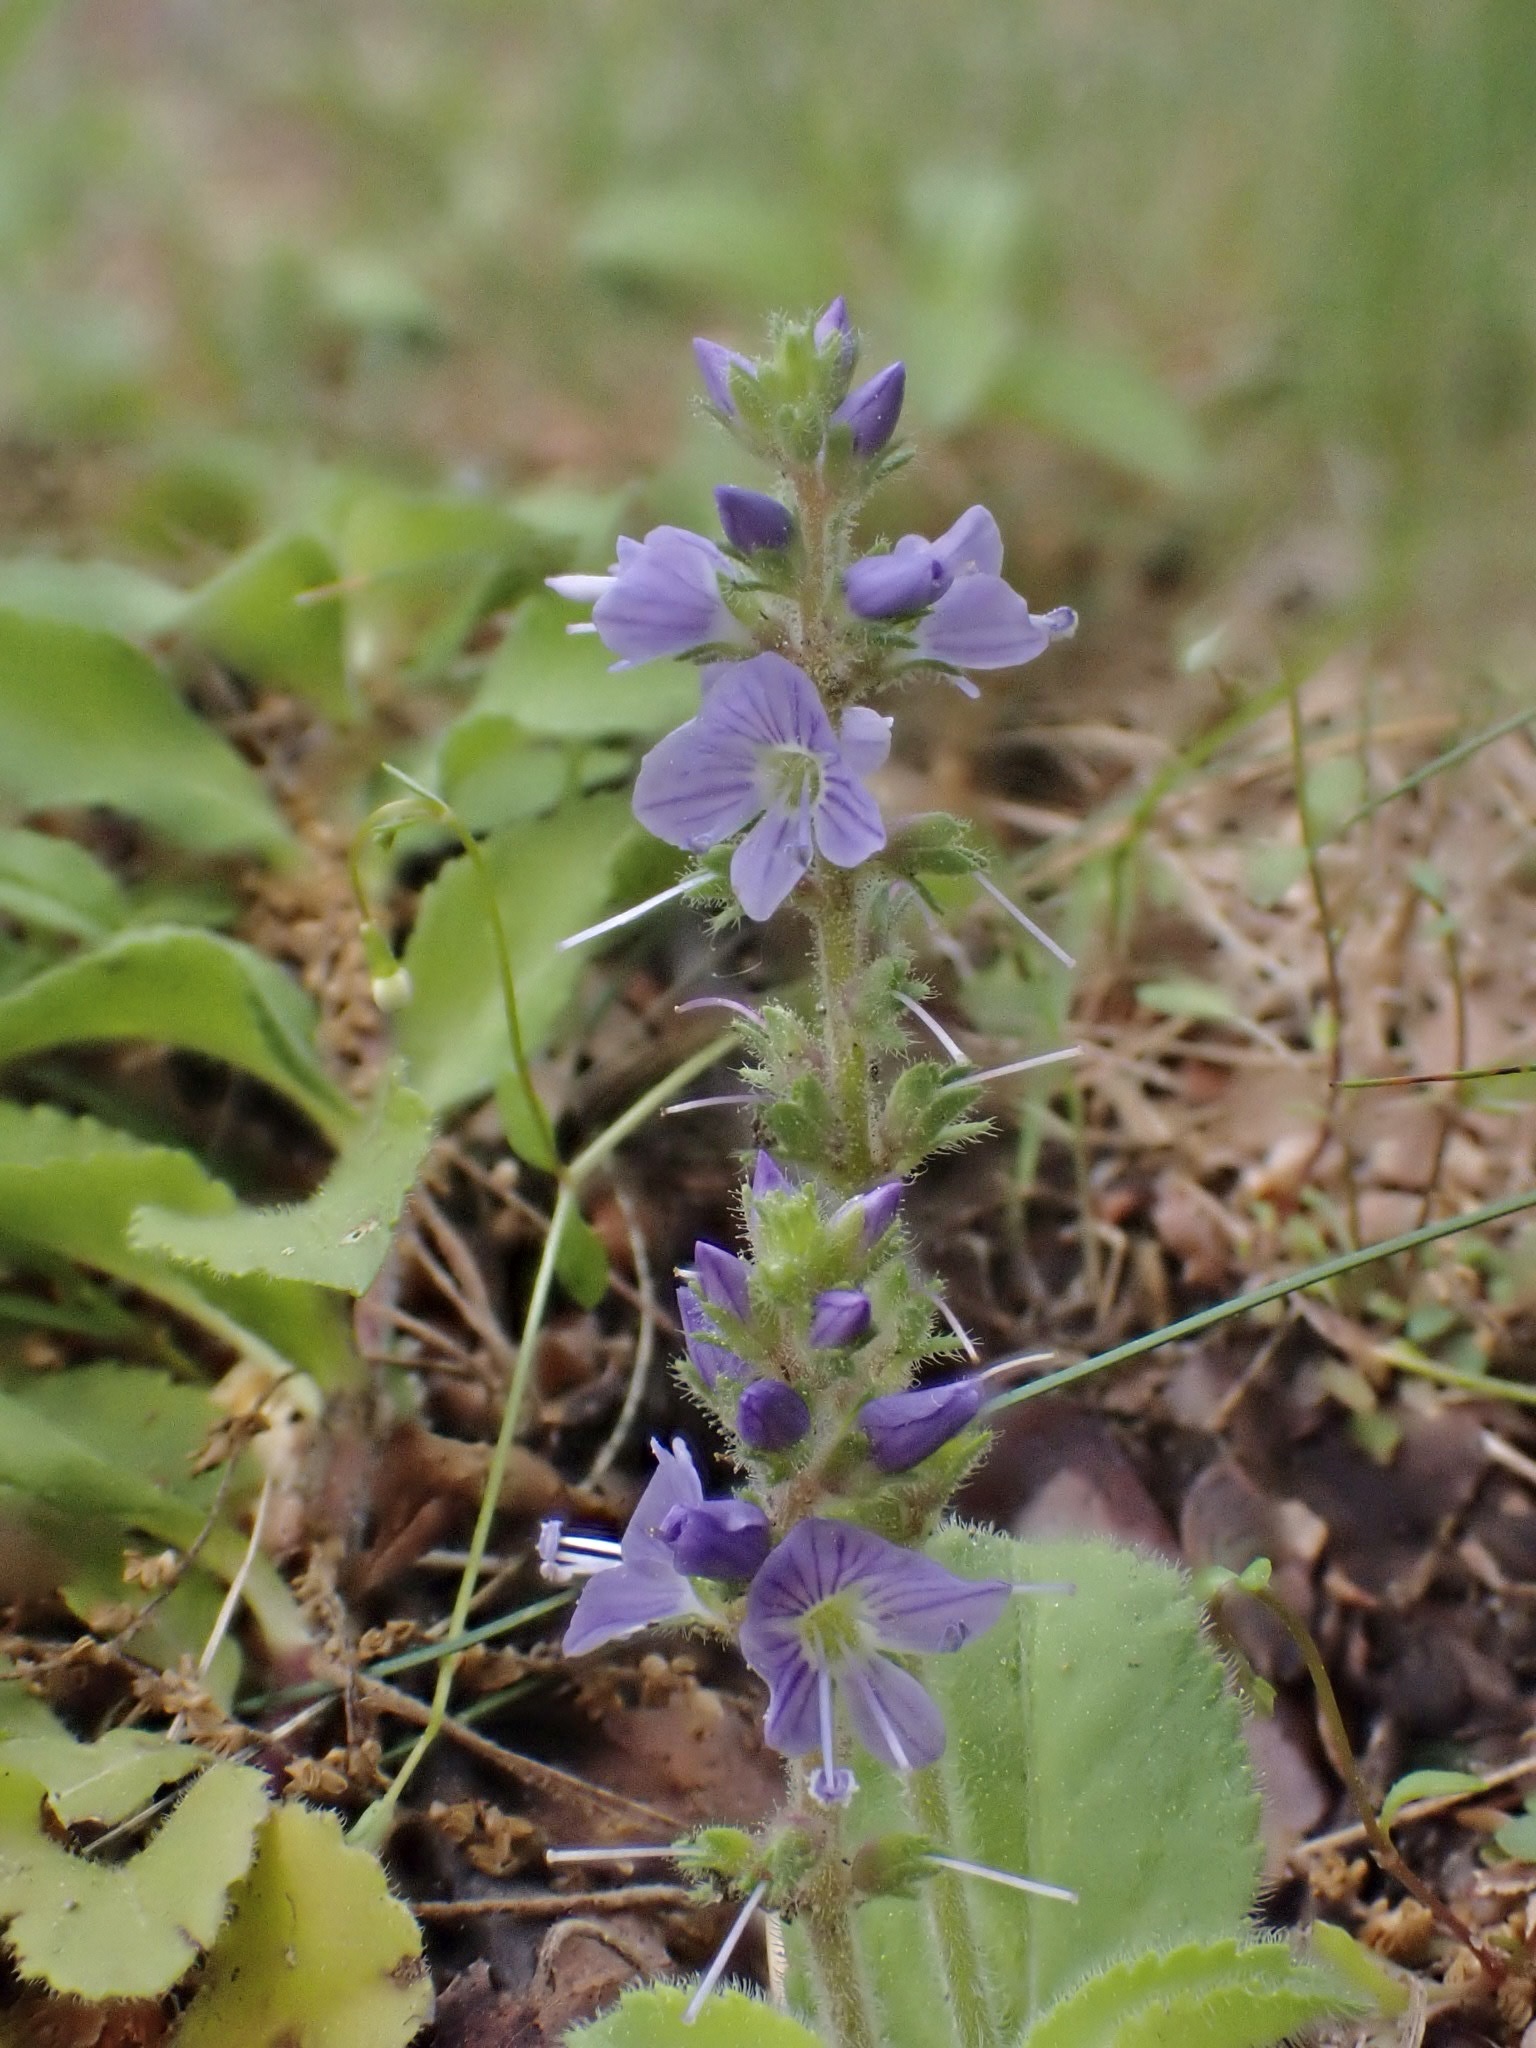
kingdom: Plantae
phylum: Tracheophyta
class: Magnoliopsida
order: Lamiales
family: Plantaginaceae
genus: Veronica
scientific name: Veronica officinalis
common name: Common speedwell
